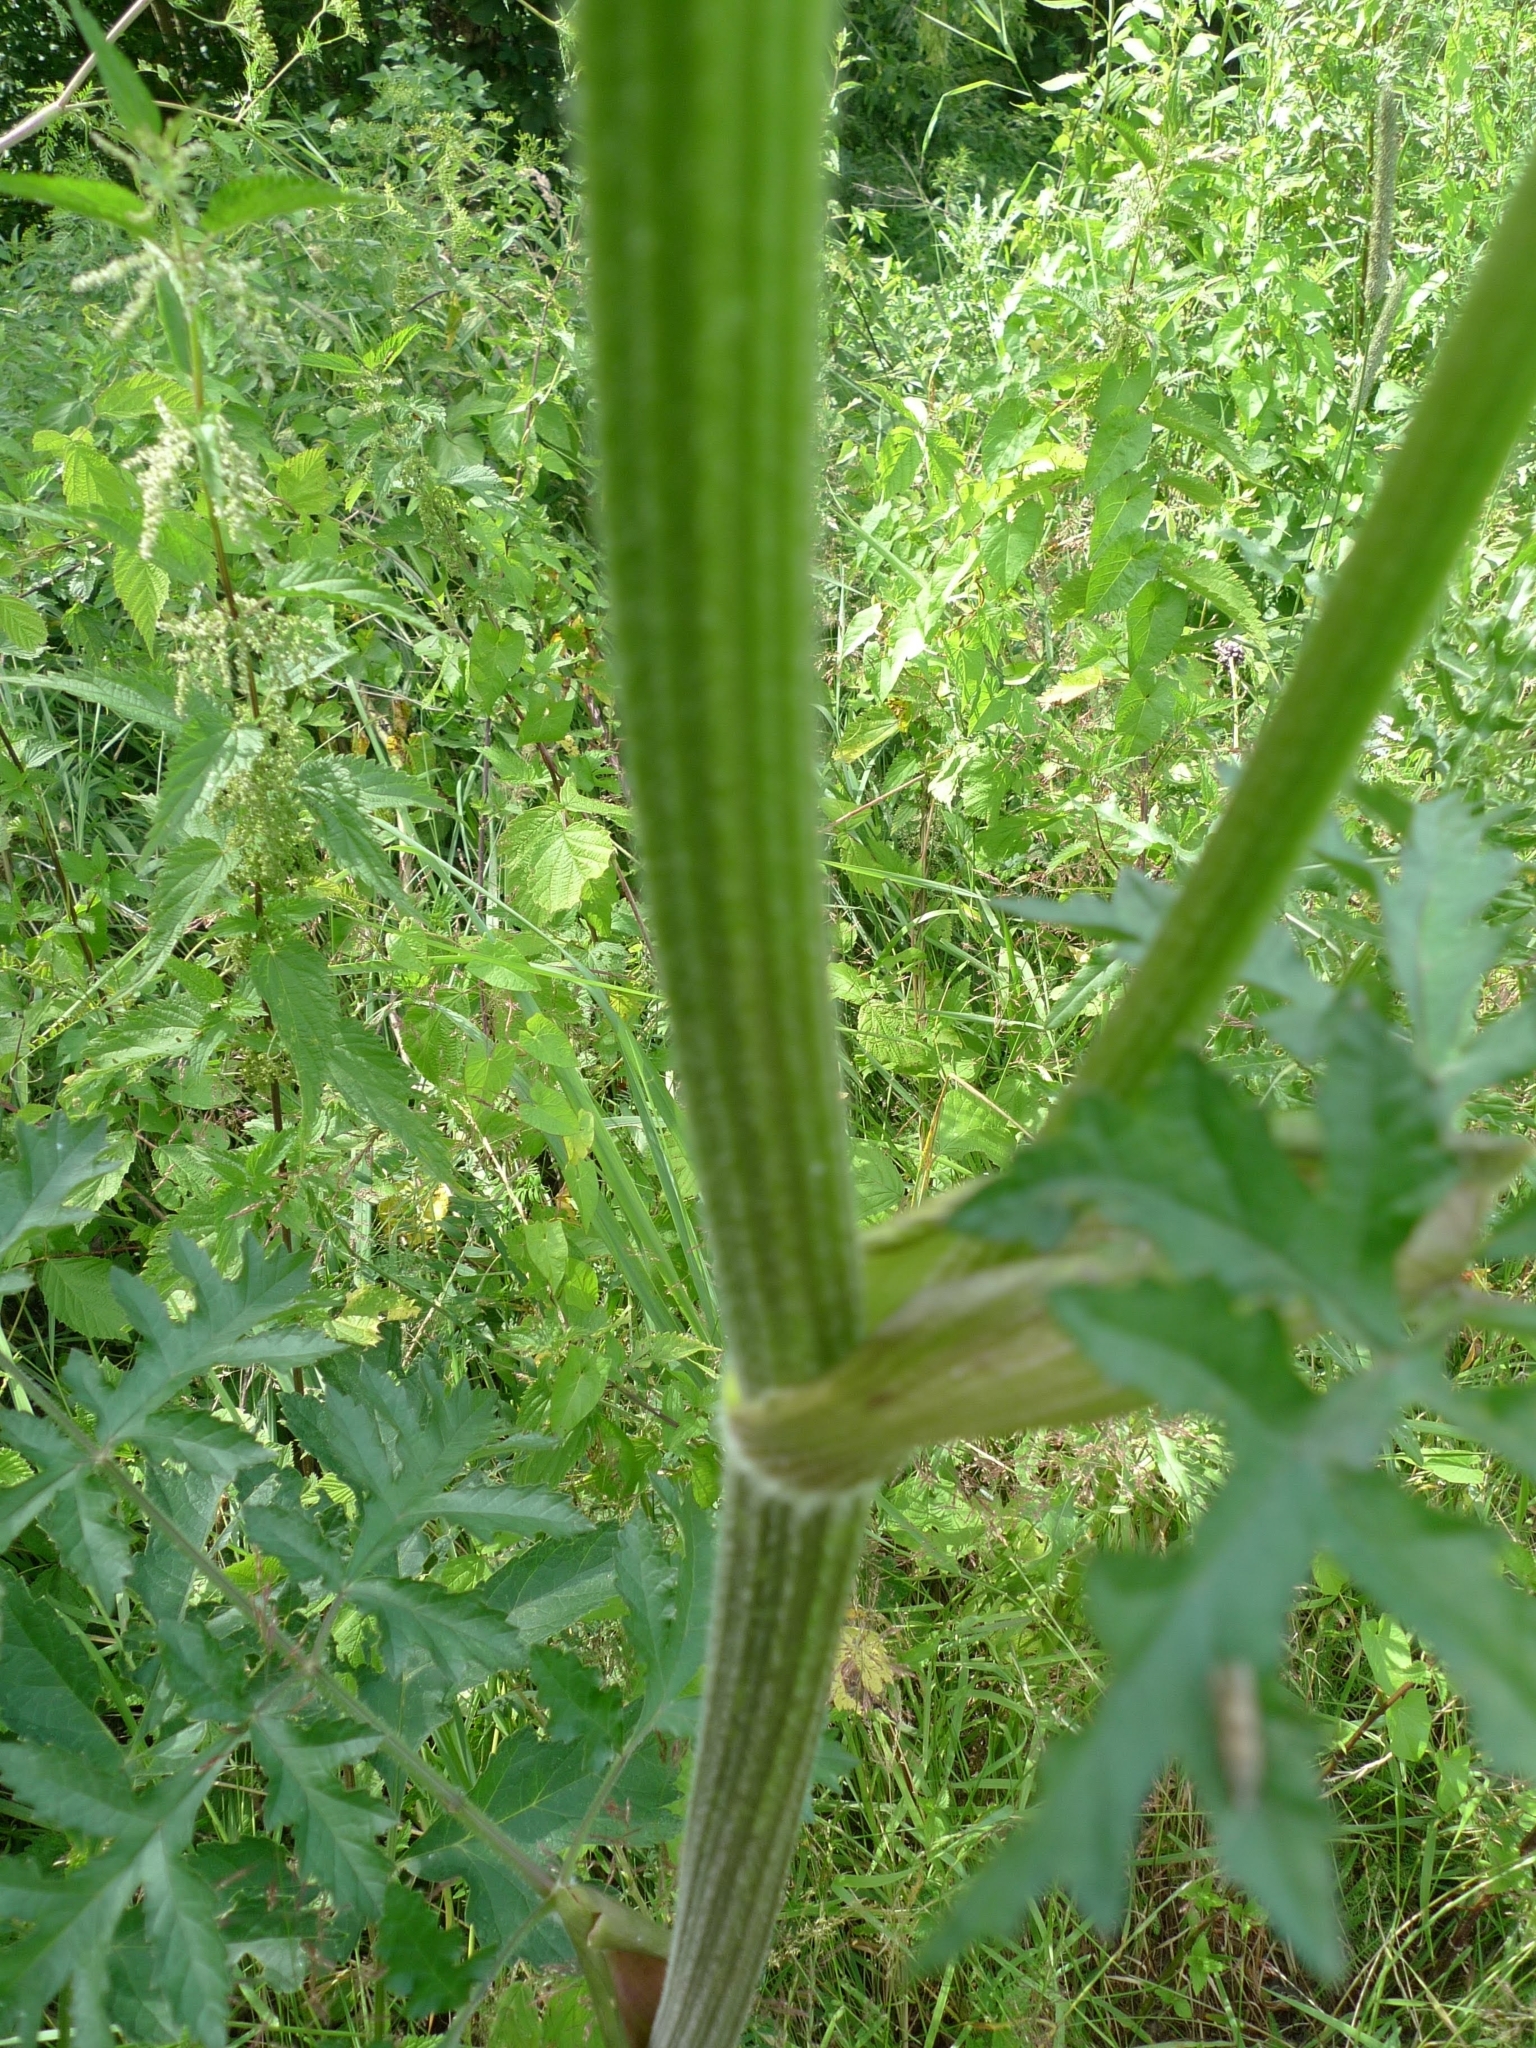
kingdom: Plantae
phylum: Tracheophyta
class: Magnoliopsida
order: Apiales
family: Apiaceae
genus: Heracleum
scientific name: Heracleum sphondylium
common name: Hogweed
